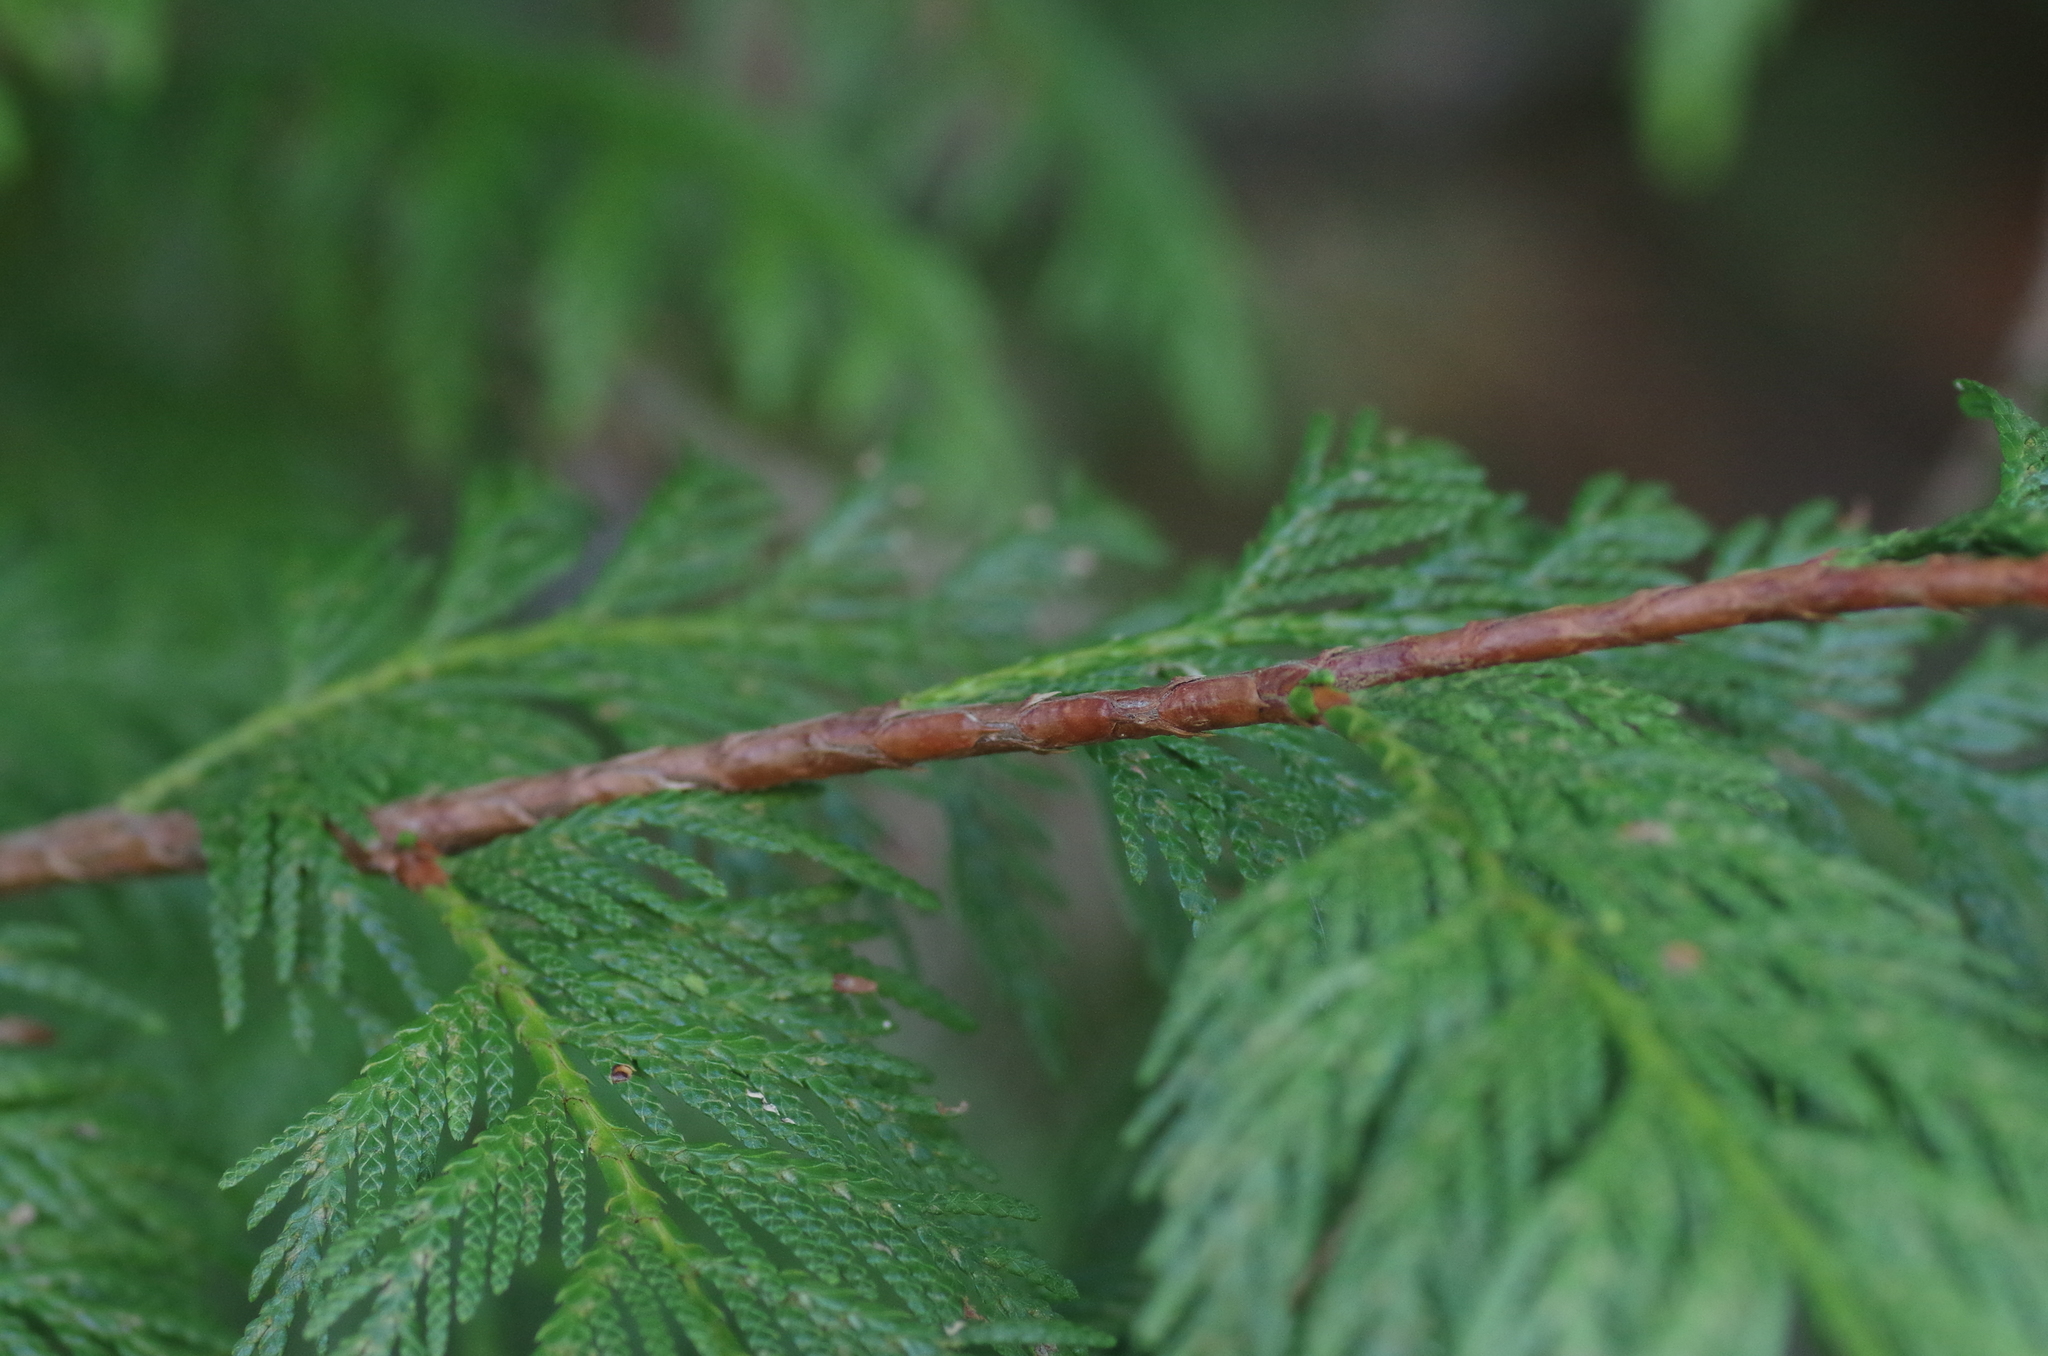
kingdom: Plantae
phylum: Tracheophyta
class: Pinopsida
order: Pinales
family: Cupressaceae
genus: Thuja
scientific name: Thuja plicata
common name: Western red-cedar
